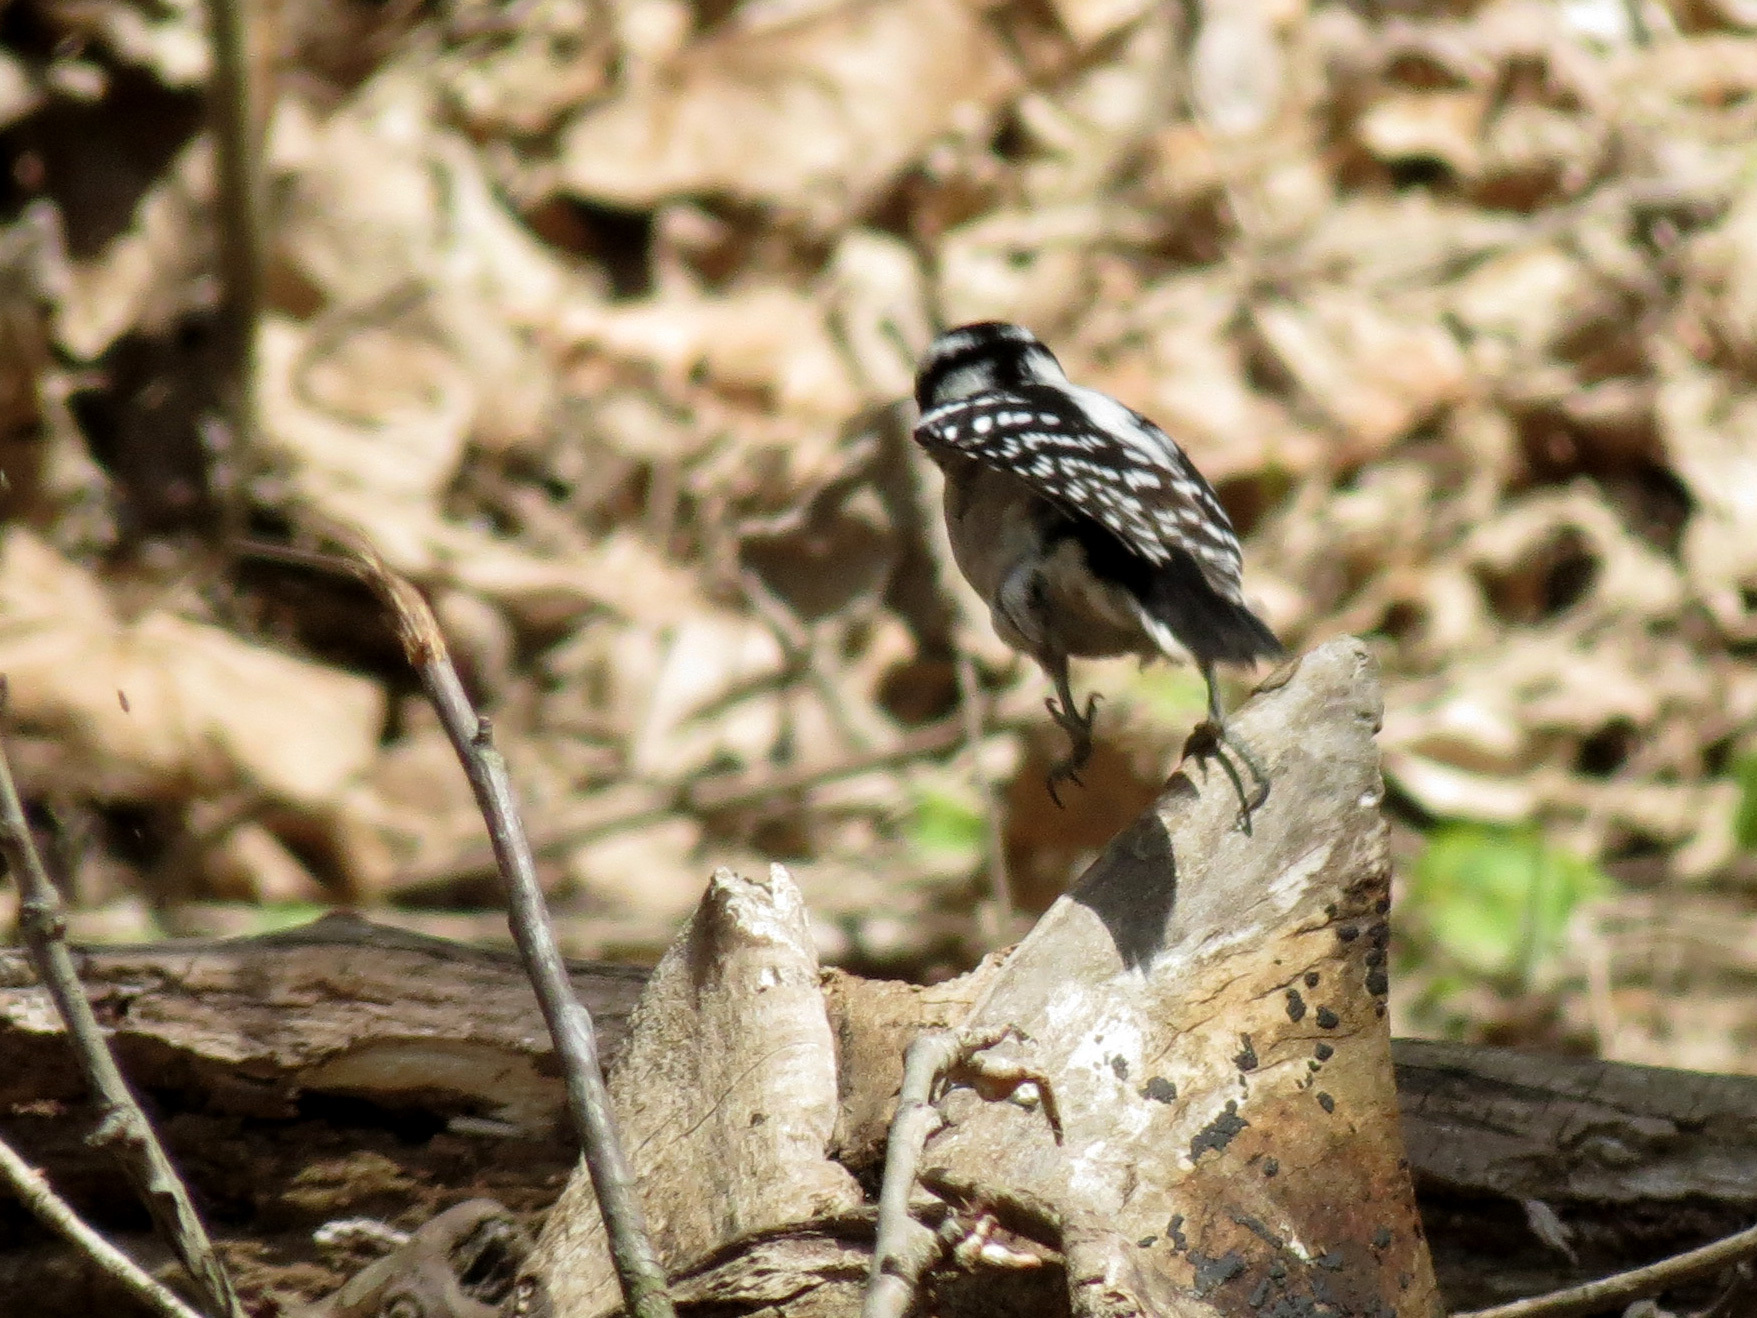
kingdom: Animalia
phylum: Chordata
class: Aves
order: Piciformes
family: Picidae
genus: Dryobates
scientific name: Dryobates pubescens
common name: Downy woodpecker
